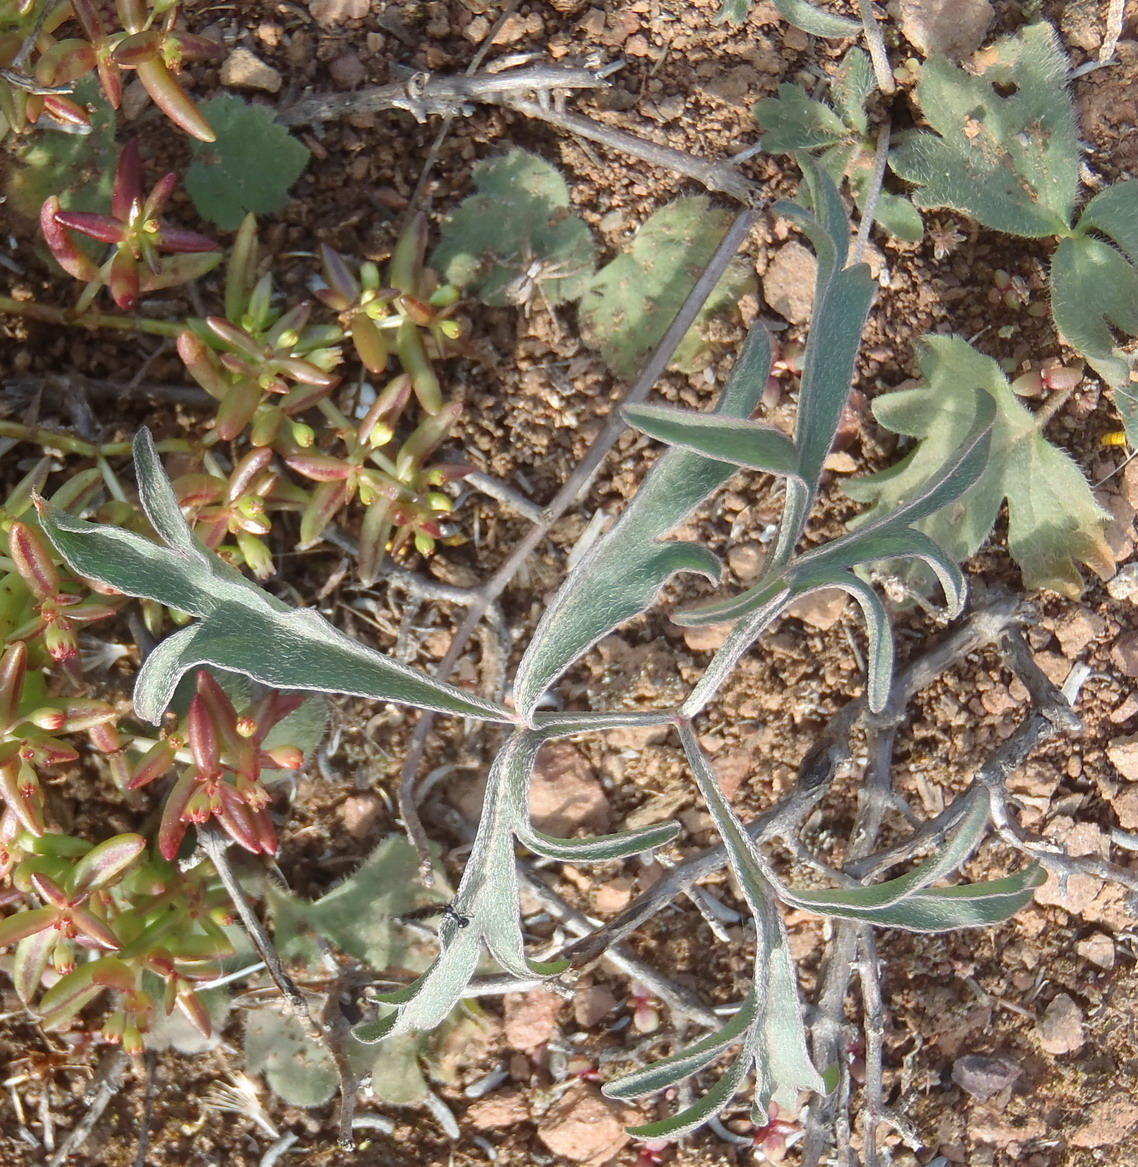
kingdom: Plantae
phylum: Tracheophyta
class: Magnoliopsida
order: Geraniales
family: Geraniaceae
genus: Pelargonium
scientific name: Pelargonium gracillimum
